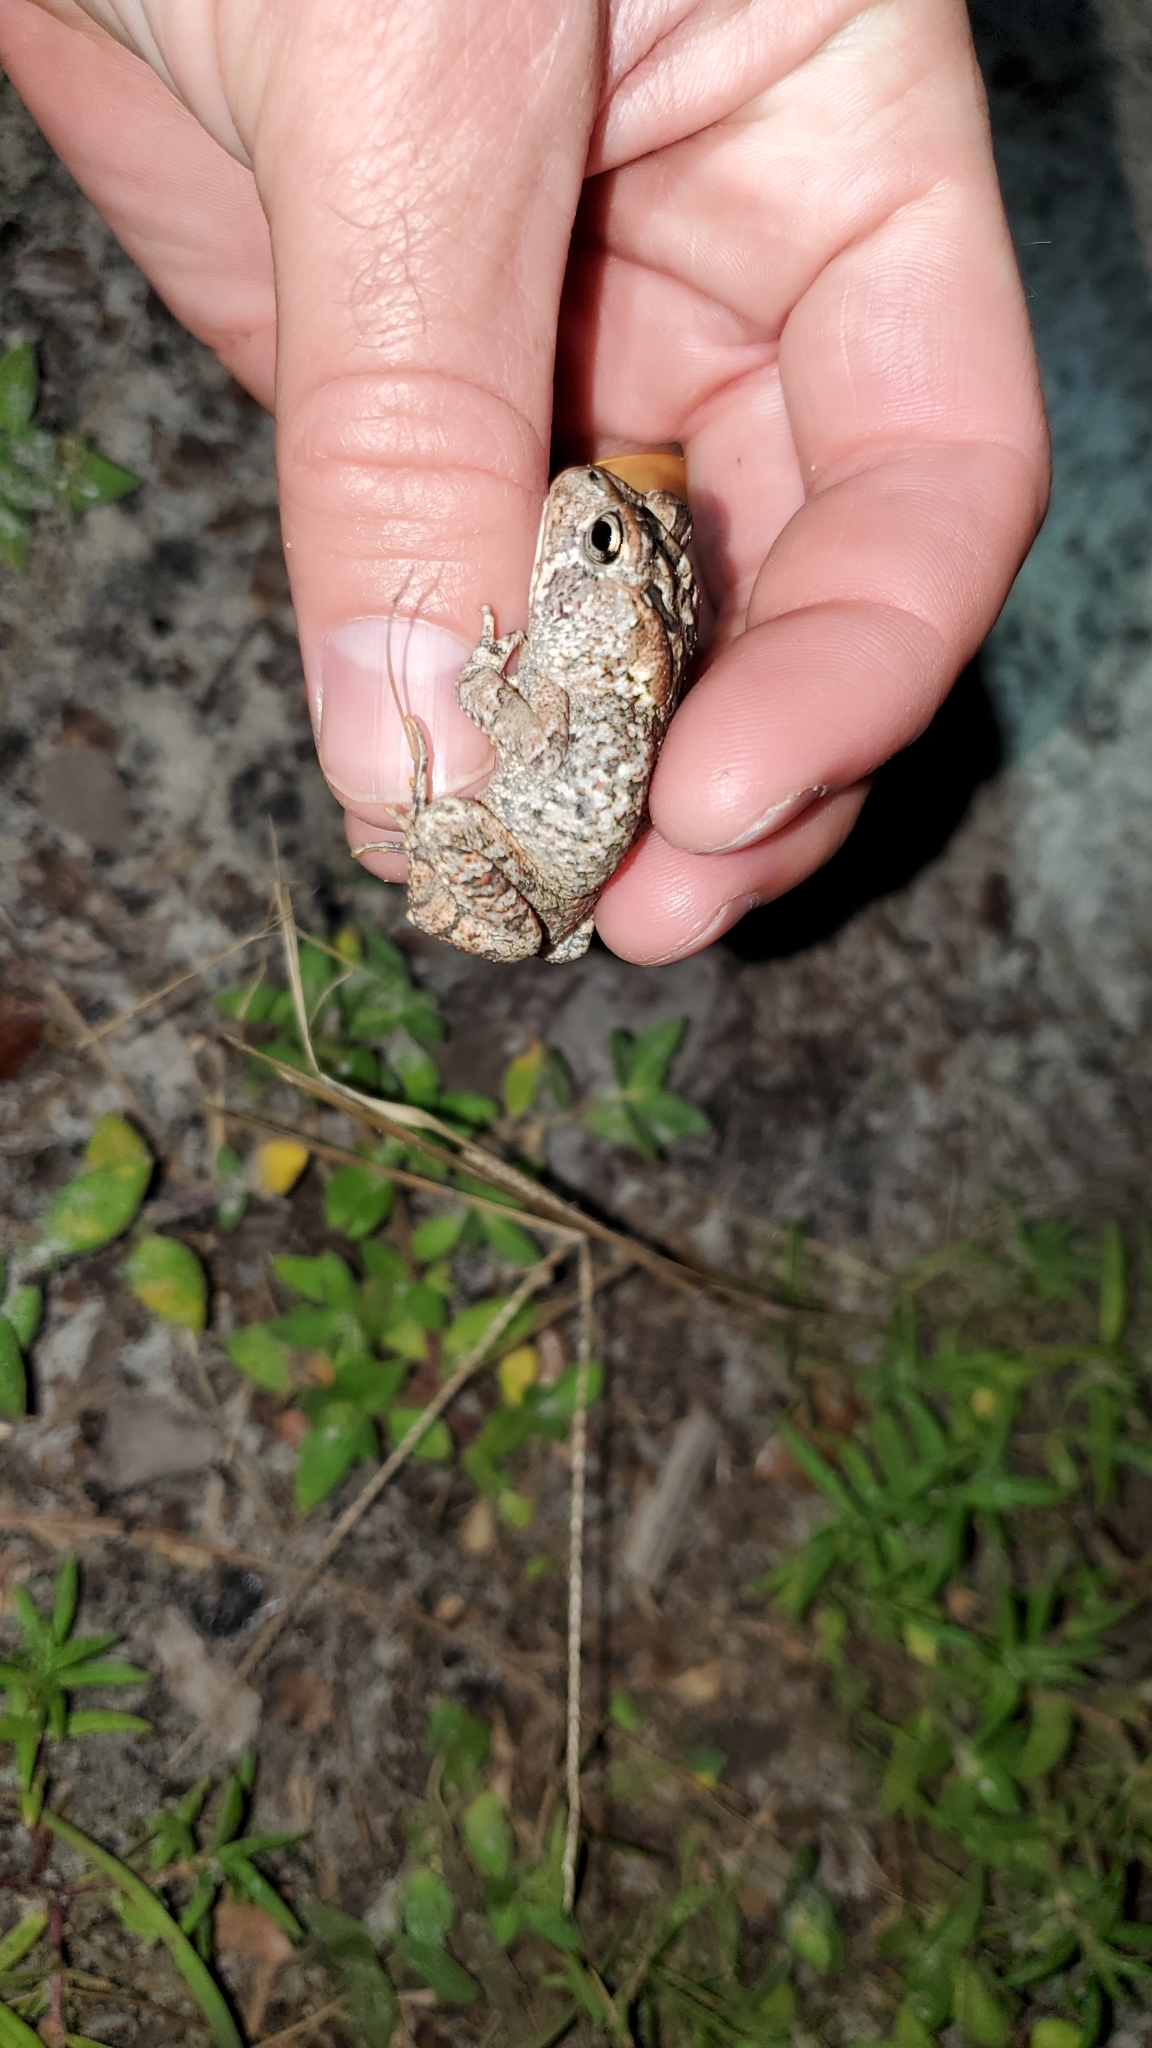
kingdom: Animalia
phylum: Chordata
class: Amphibia
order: Anura
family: Bufonidae
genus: Anaxyrus
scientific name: Anaxyrus terrestris
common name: Southern toad
